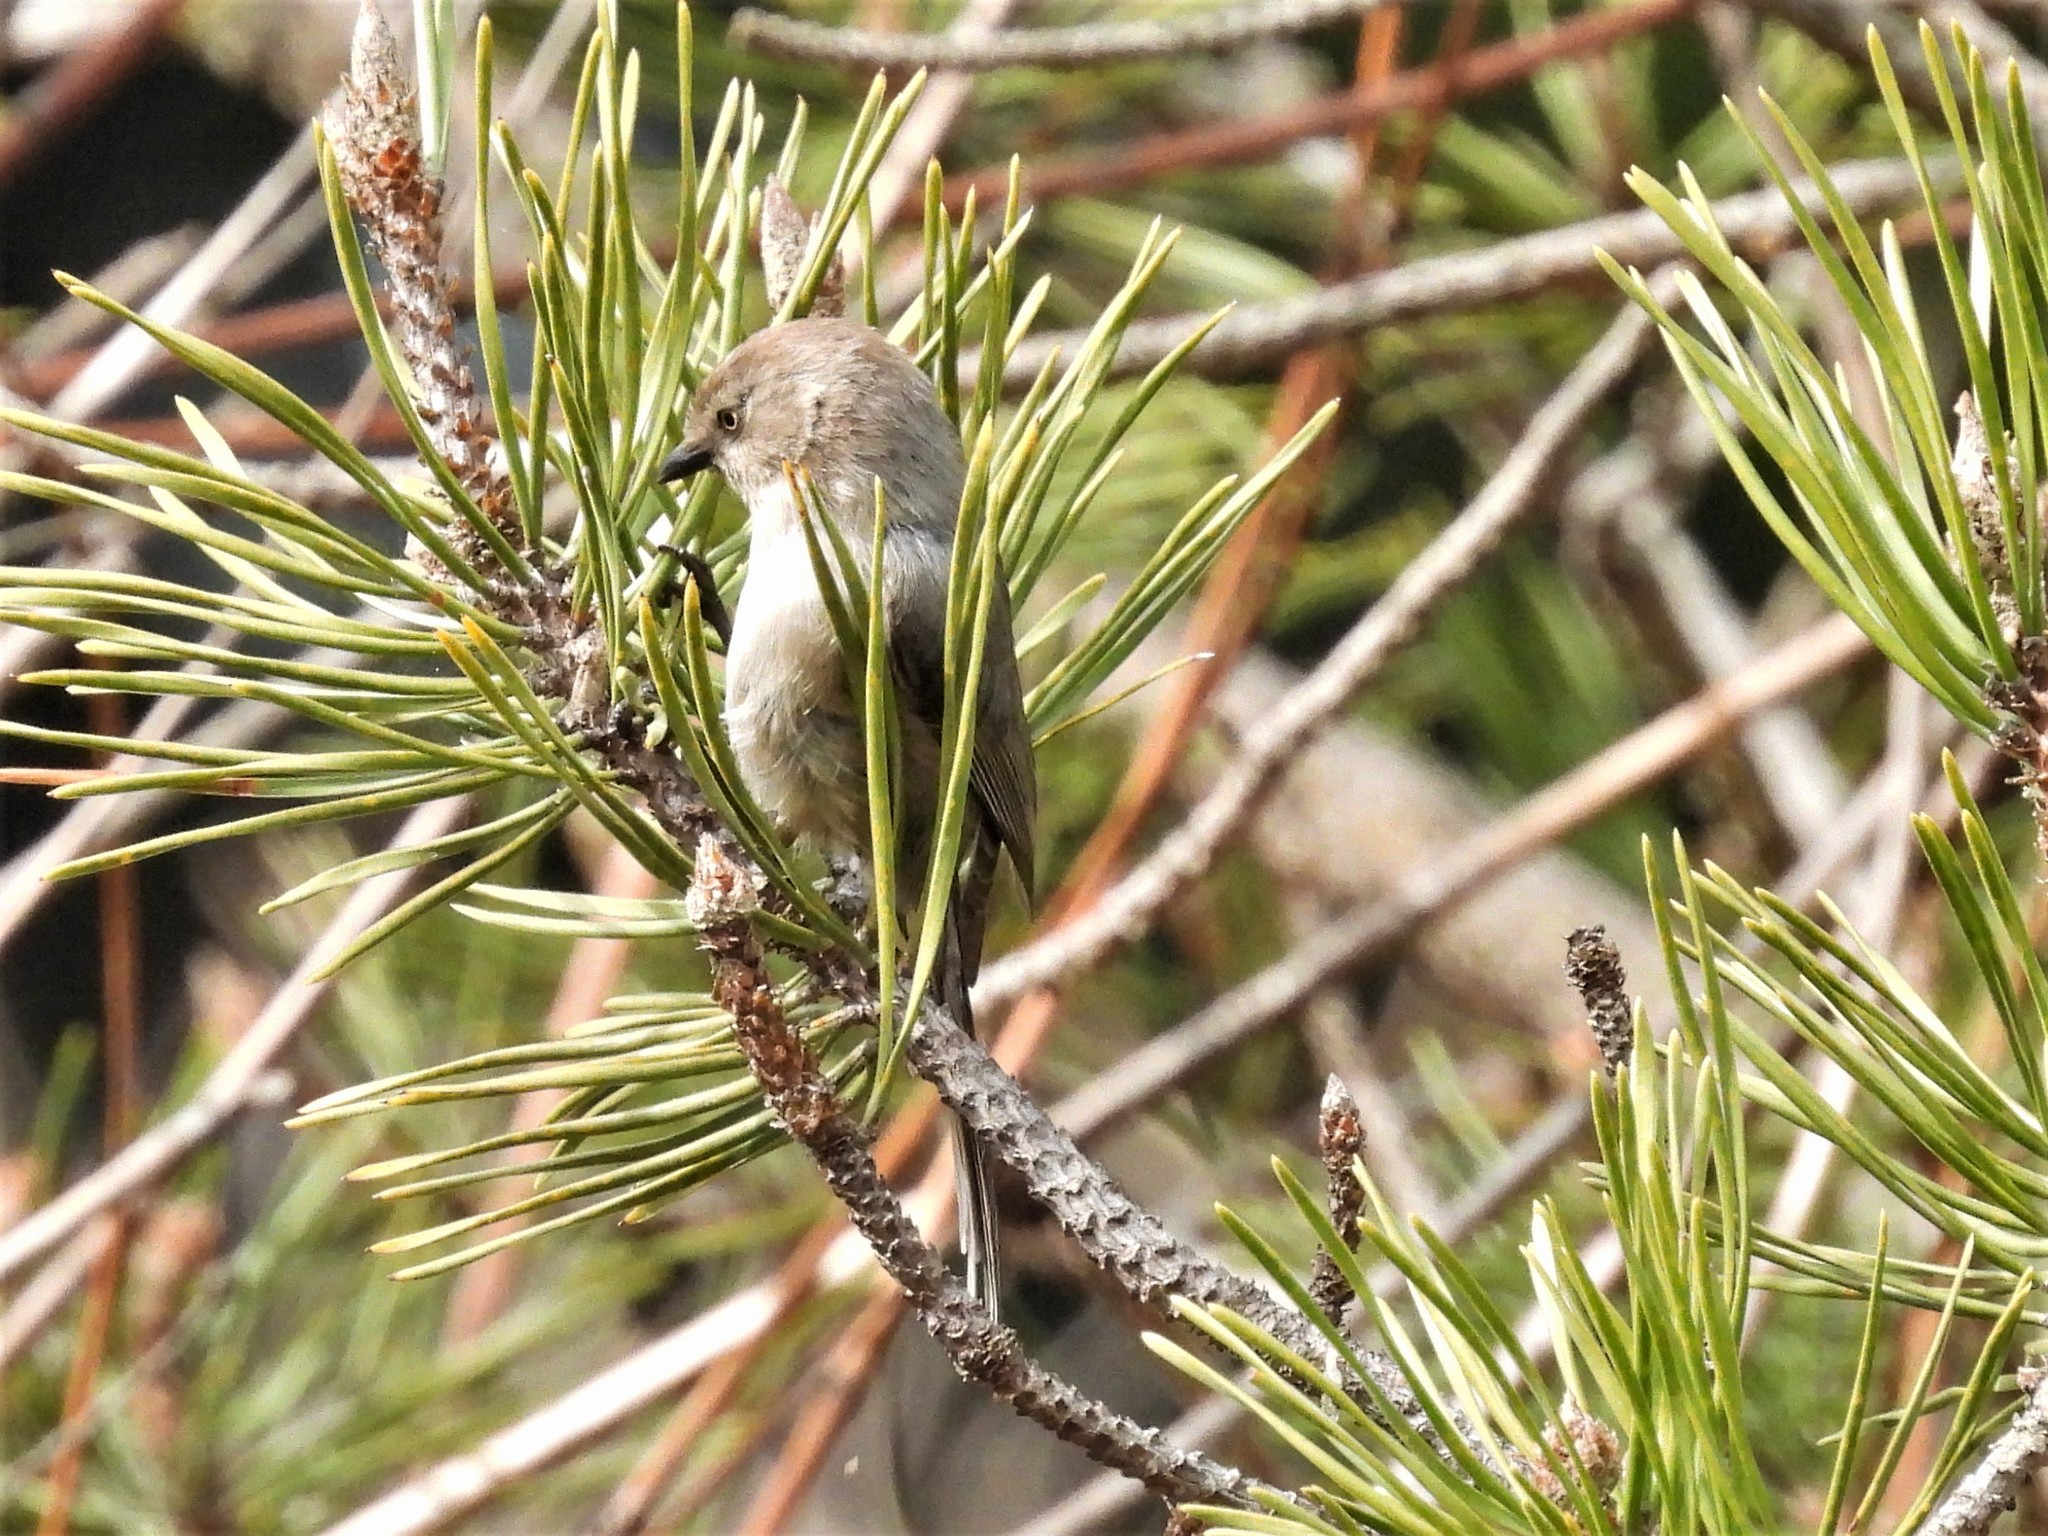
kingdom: Animalia
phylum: Chordata
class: Aves
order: Passeriformes
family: Aegithalidae
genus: Psaltriparus
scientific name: Psaltriparus minimus
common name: American bushtit
